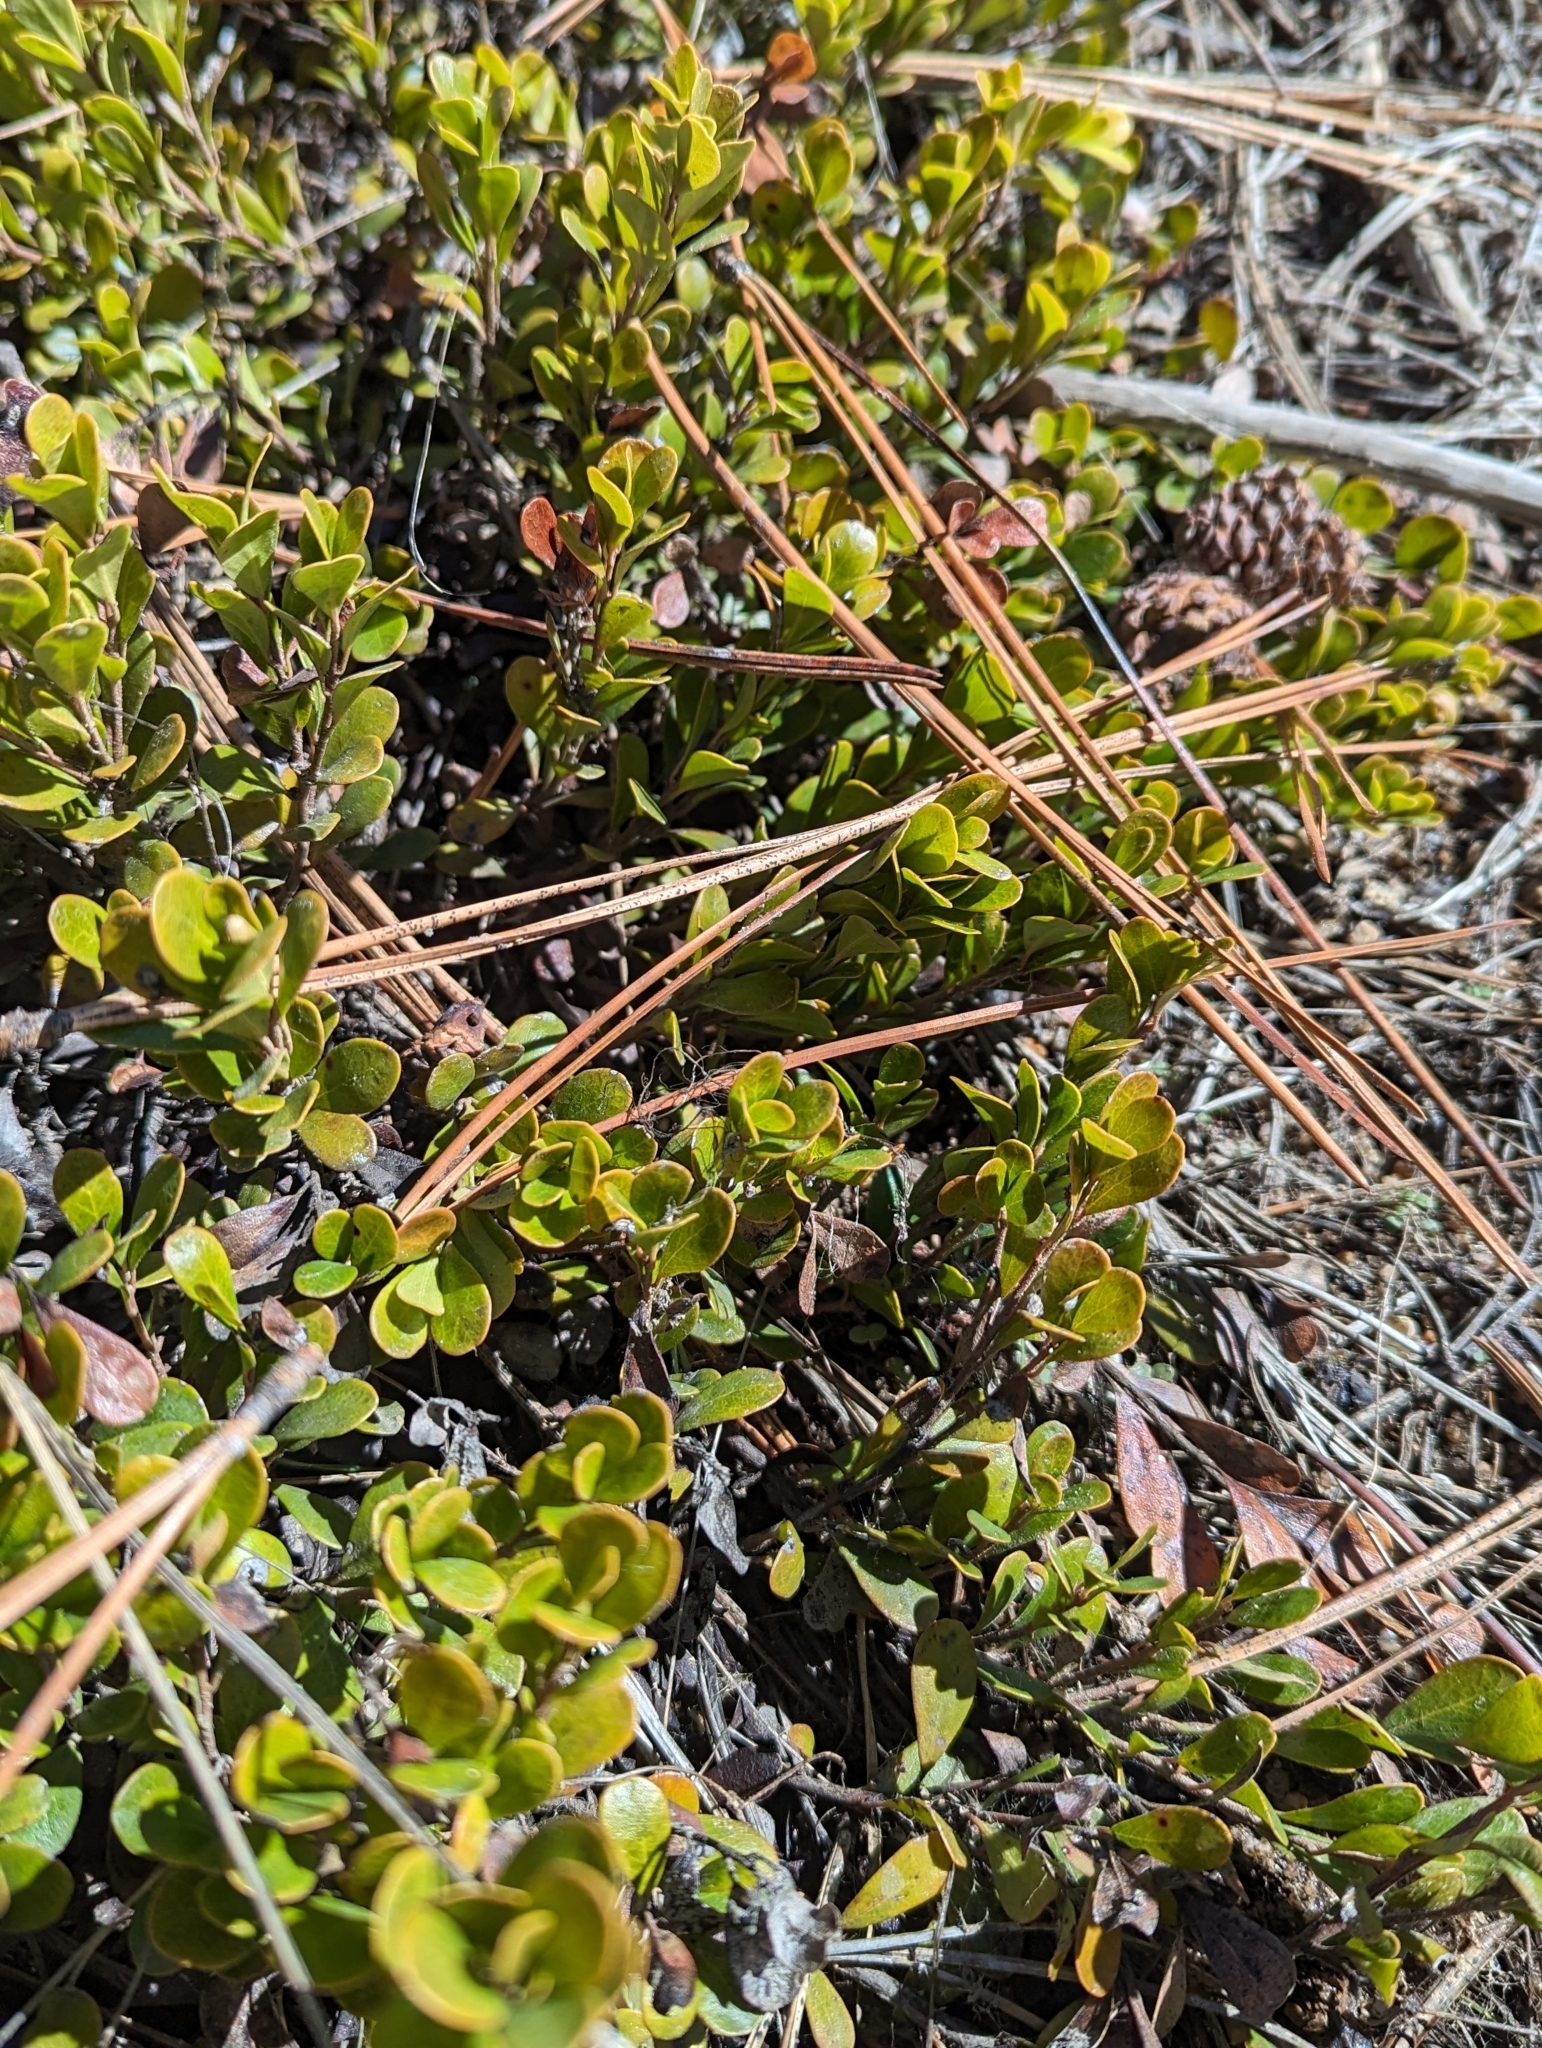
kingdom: Plantae
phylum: Tracheophyta
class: Magnoliopsida
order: Ericales
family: Ericaceae
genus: Arctostaphylos
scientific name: Arctostaphylos uva-ursi
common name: Bearberry
